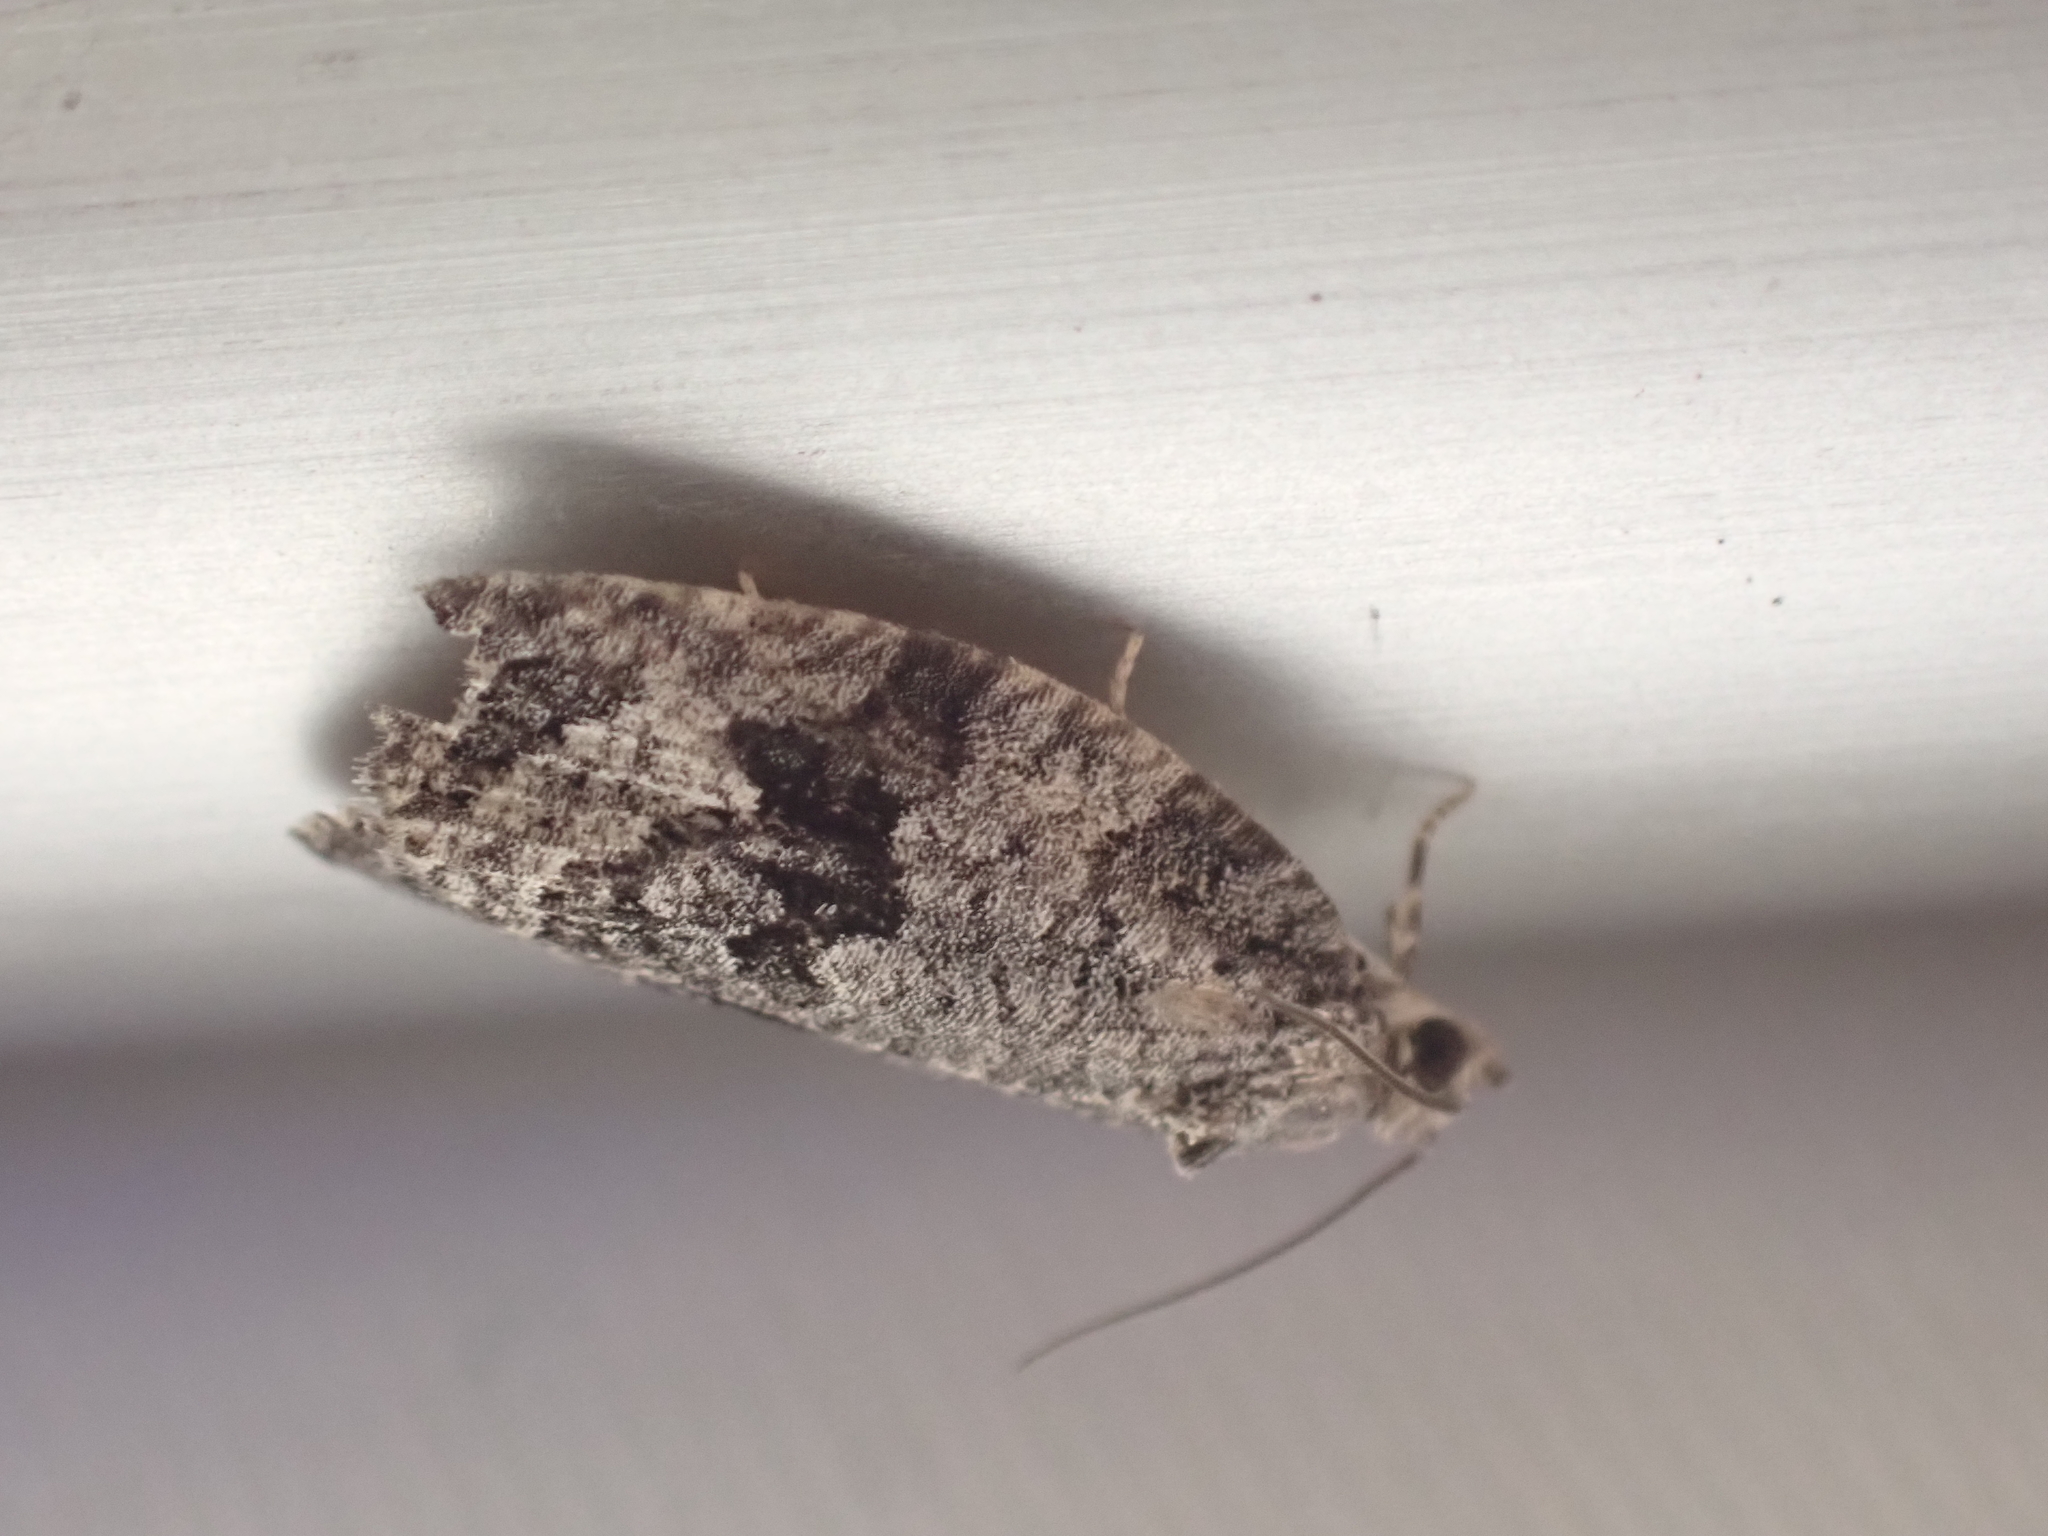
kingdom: Animalia
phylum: Arthropoda
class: Insecta
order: Lepidoptera
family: Tortricidae
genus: Apotomis
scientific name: Apotomis removana
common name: Green aspen leafroller
